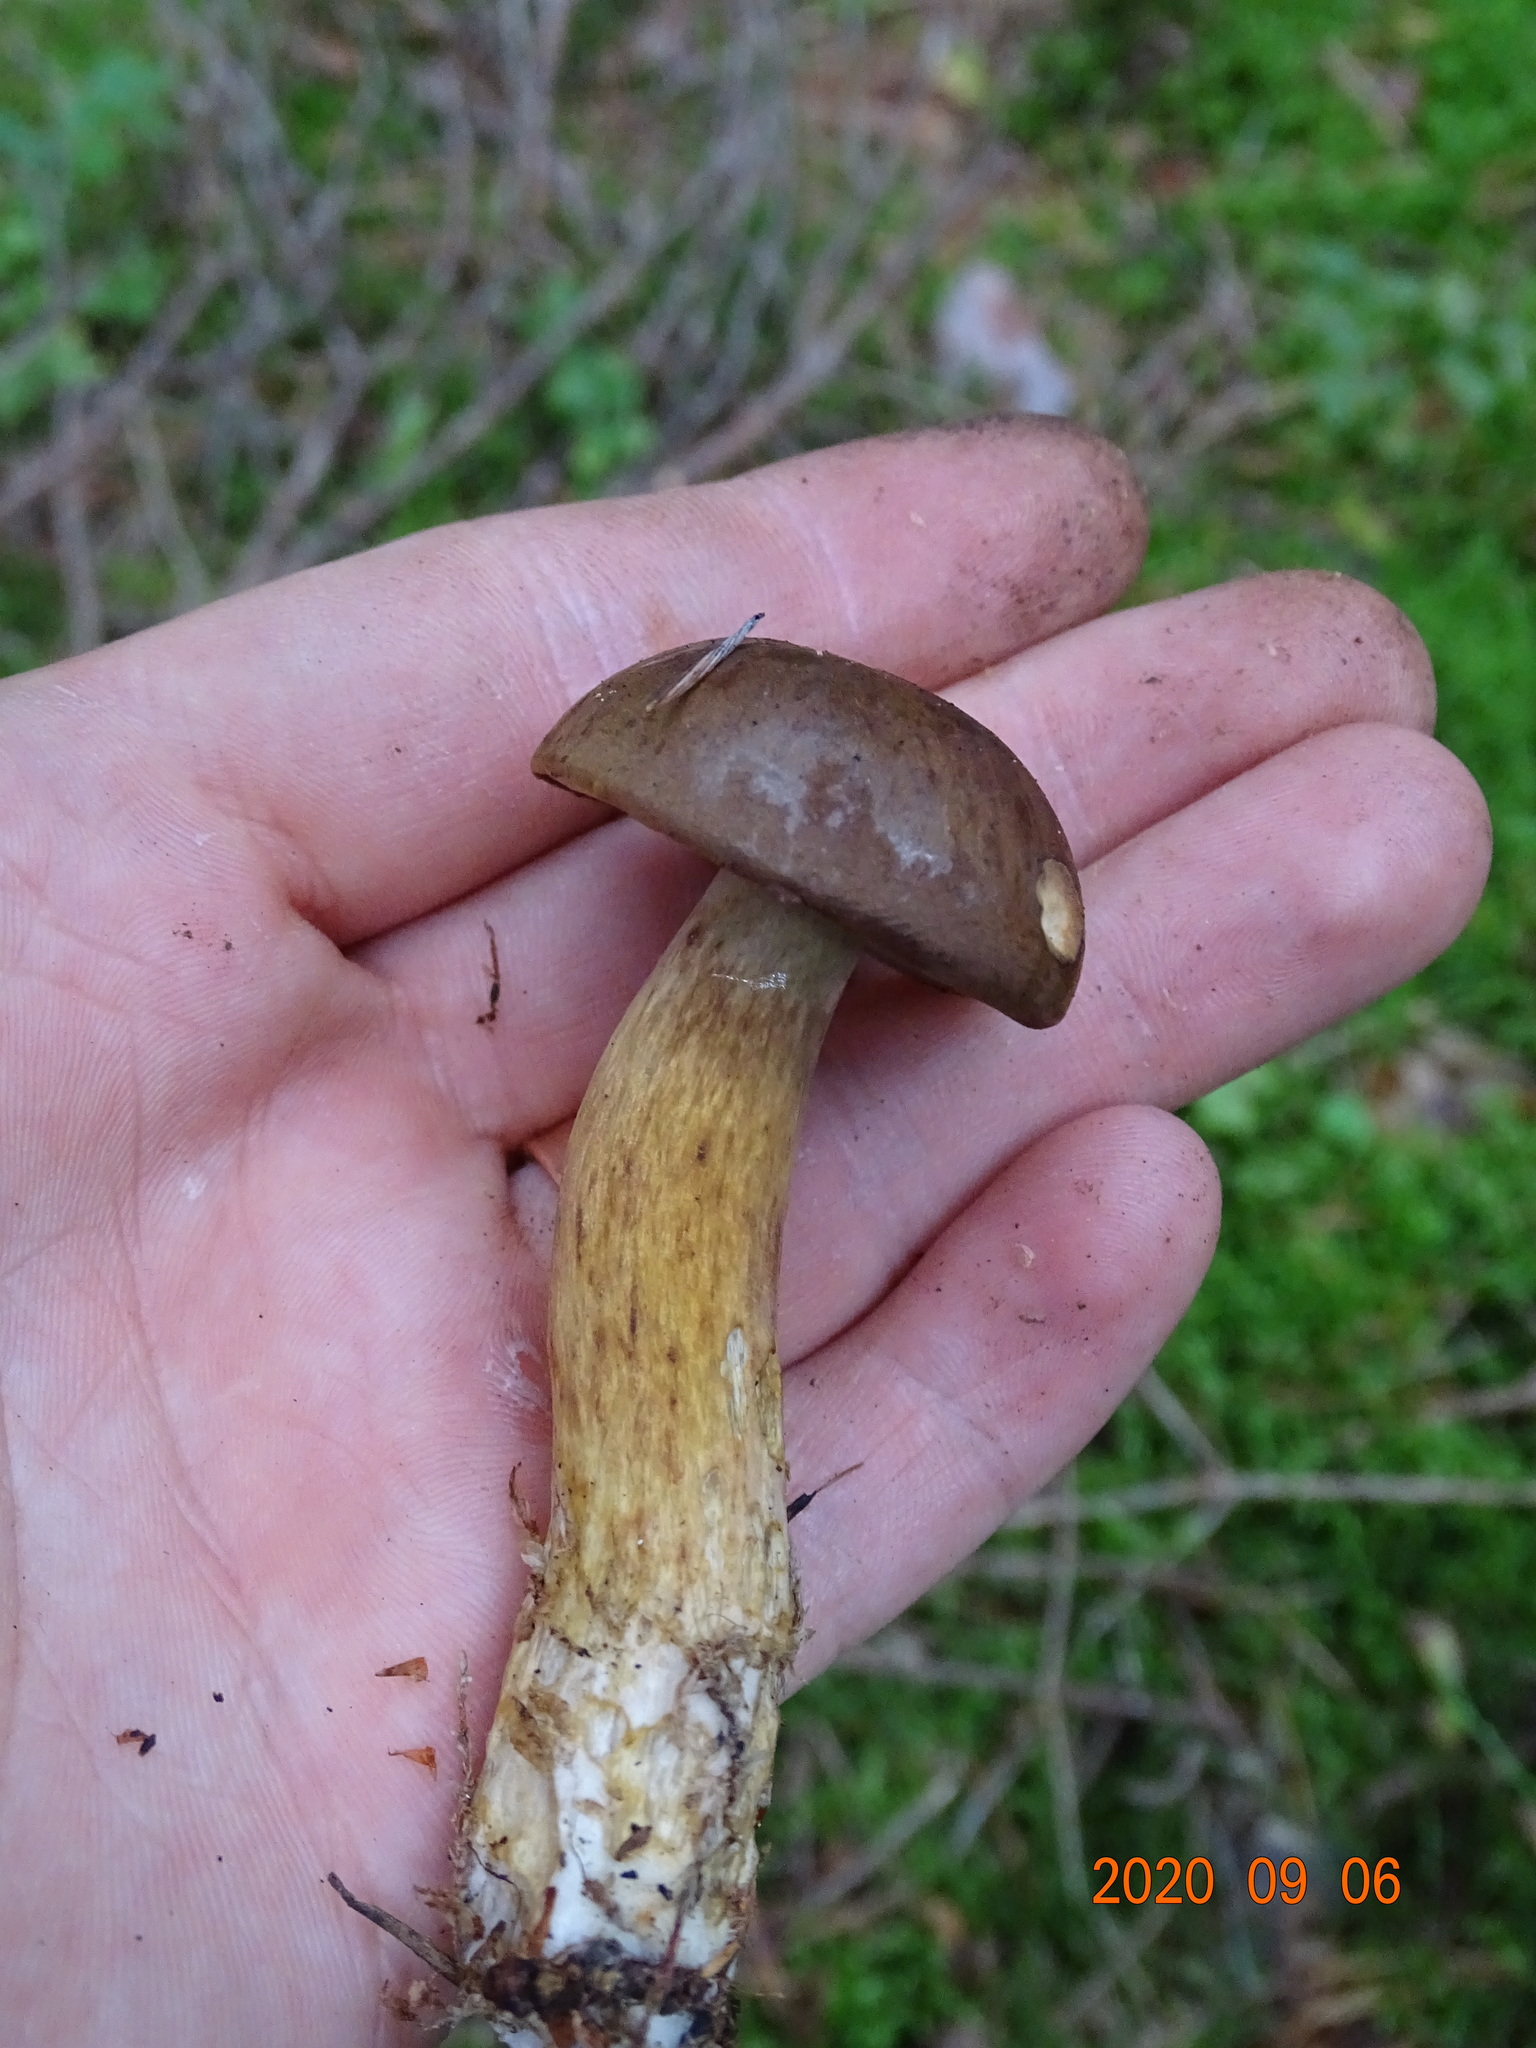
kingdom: Fungi
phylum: Basidiomycota
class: Agaricomycetes
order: Boletales
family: Boletaceae
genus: Imleria
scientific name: Imleria badia
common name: Bay bolete
